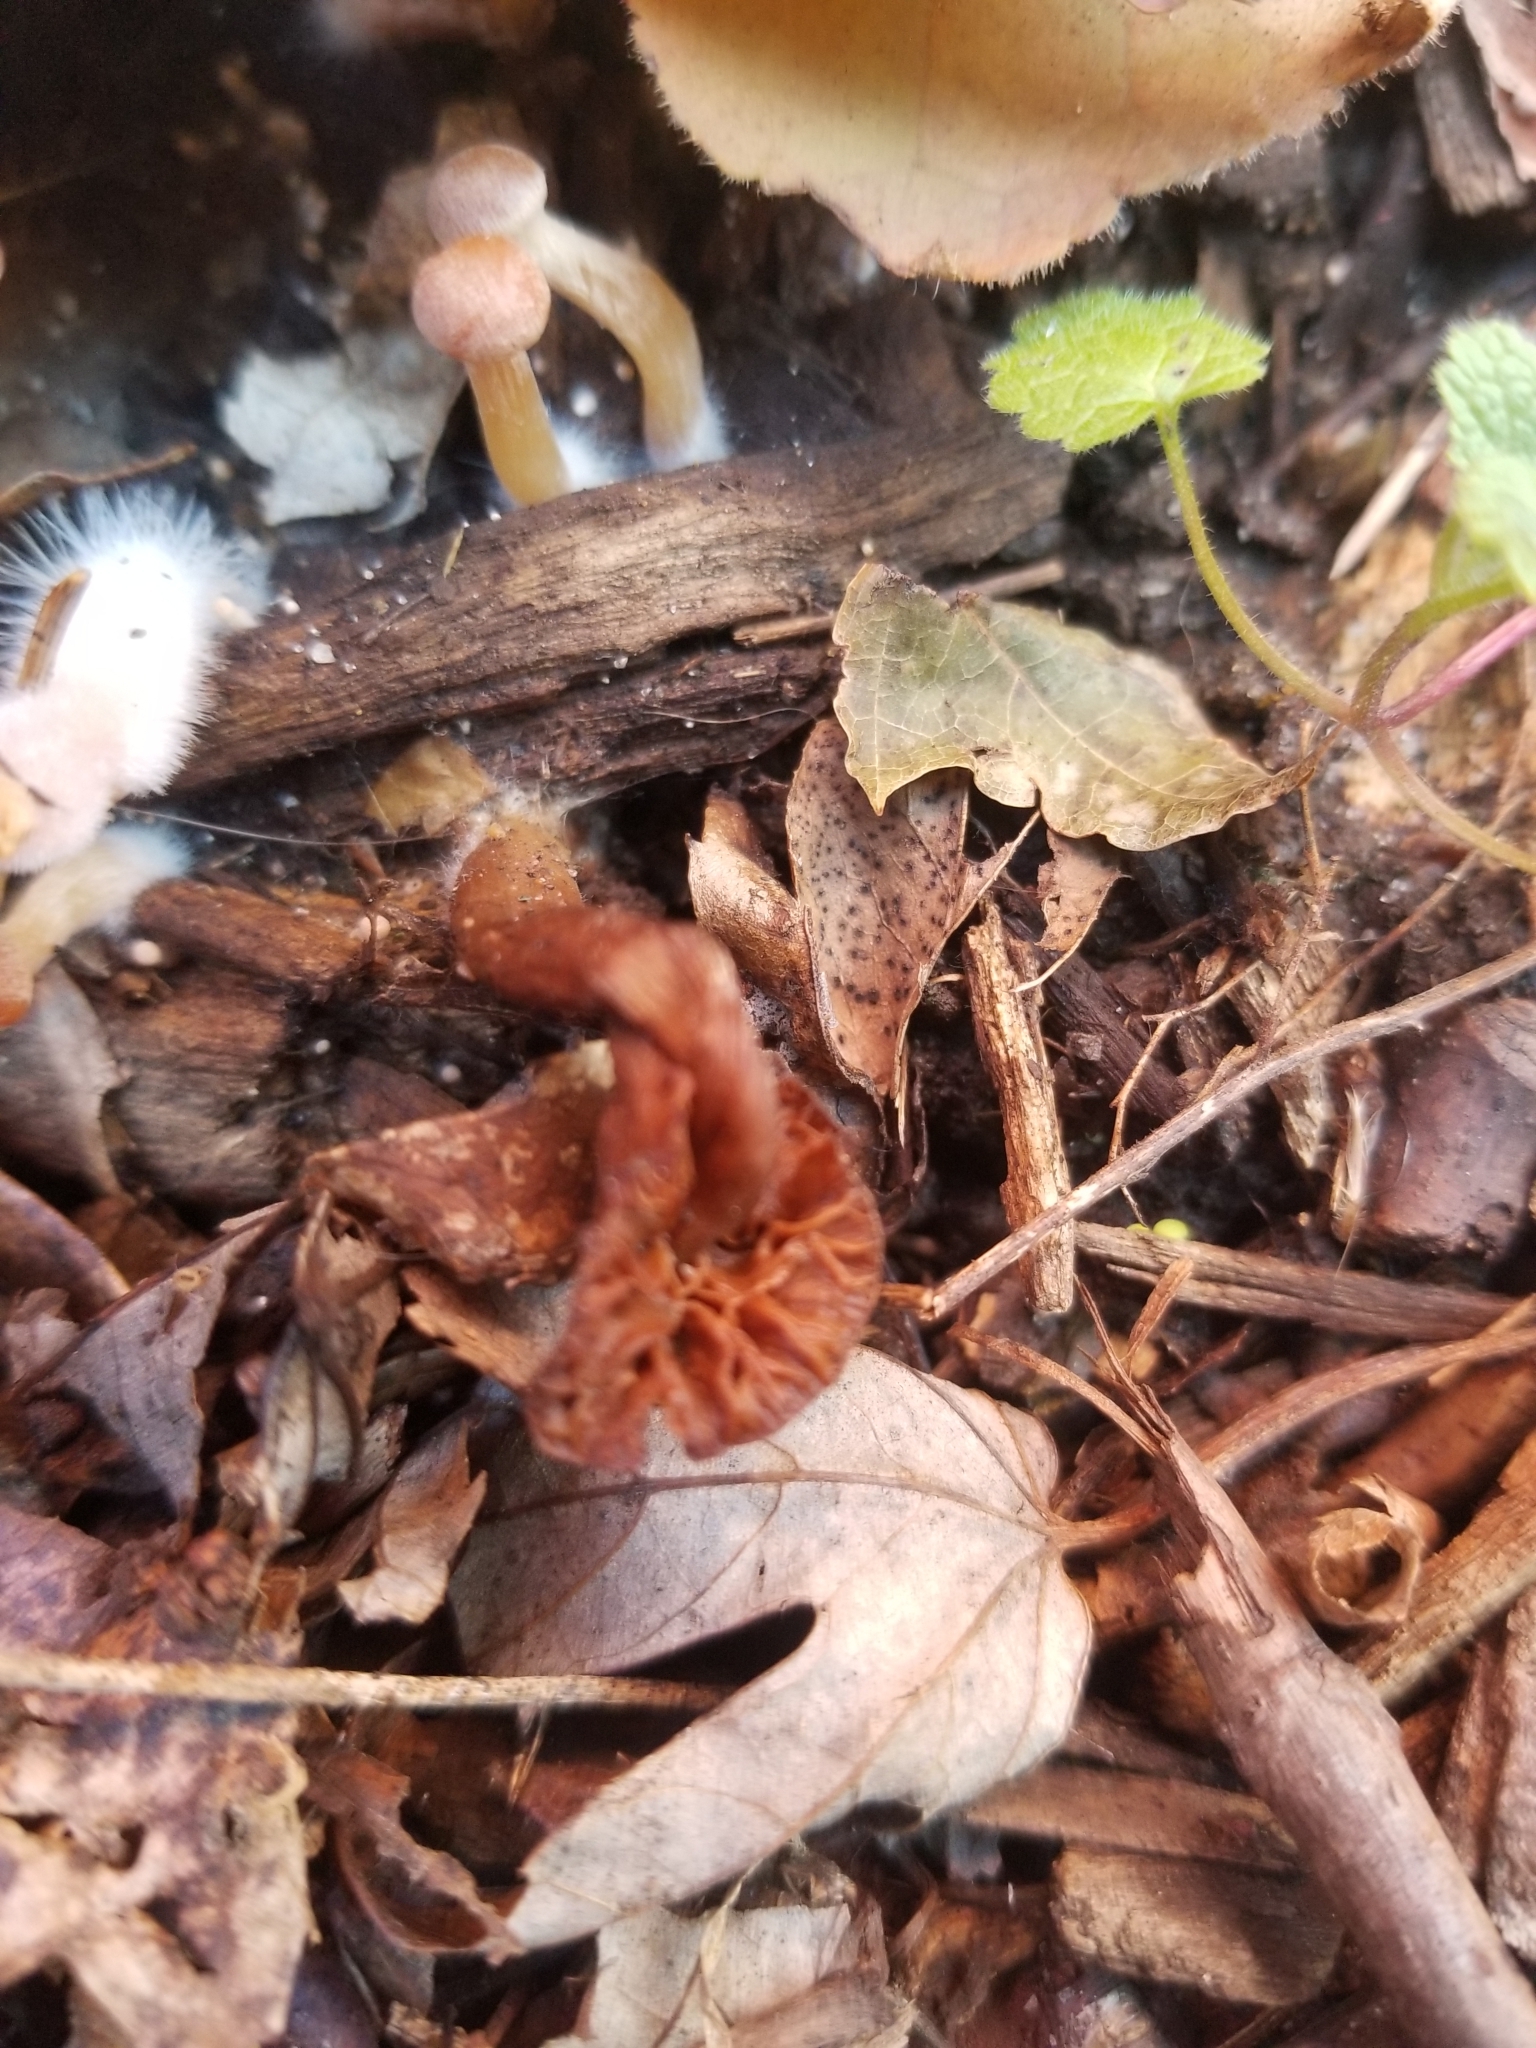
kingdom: Fungi
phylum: Basidiomycota
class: Agaricomycetes
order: Agaricales
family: Tubariaceae
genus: Tubaria
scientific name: Tubaria furfuracea
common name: Scurfy twiglet
